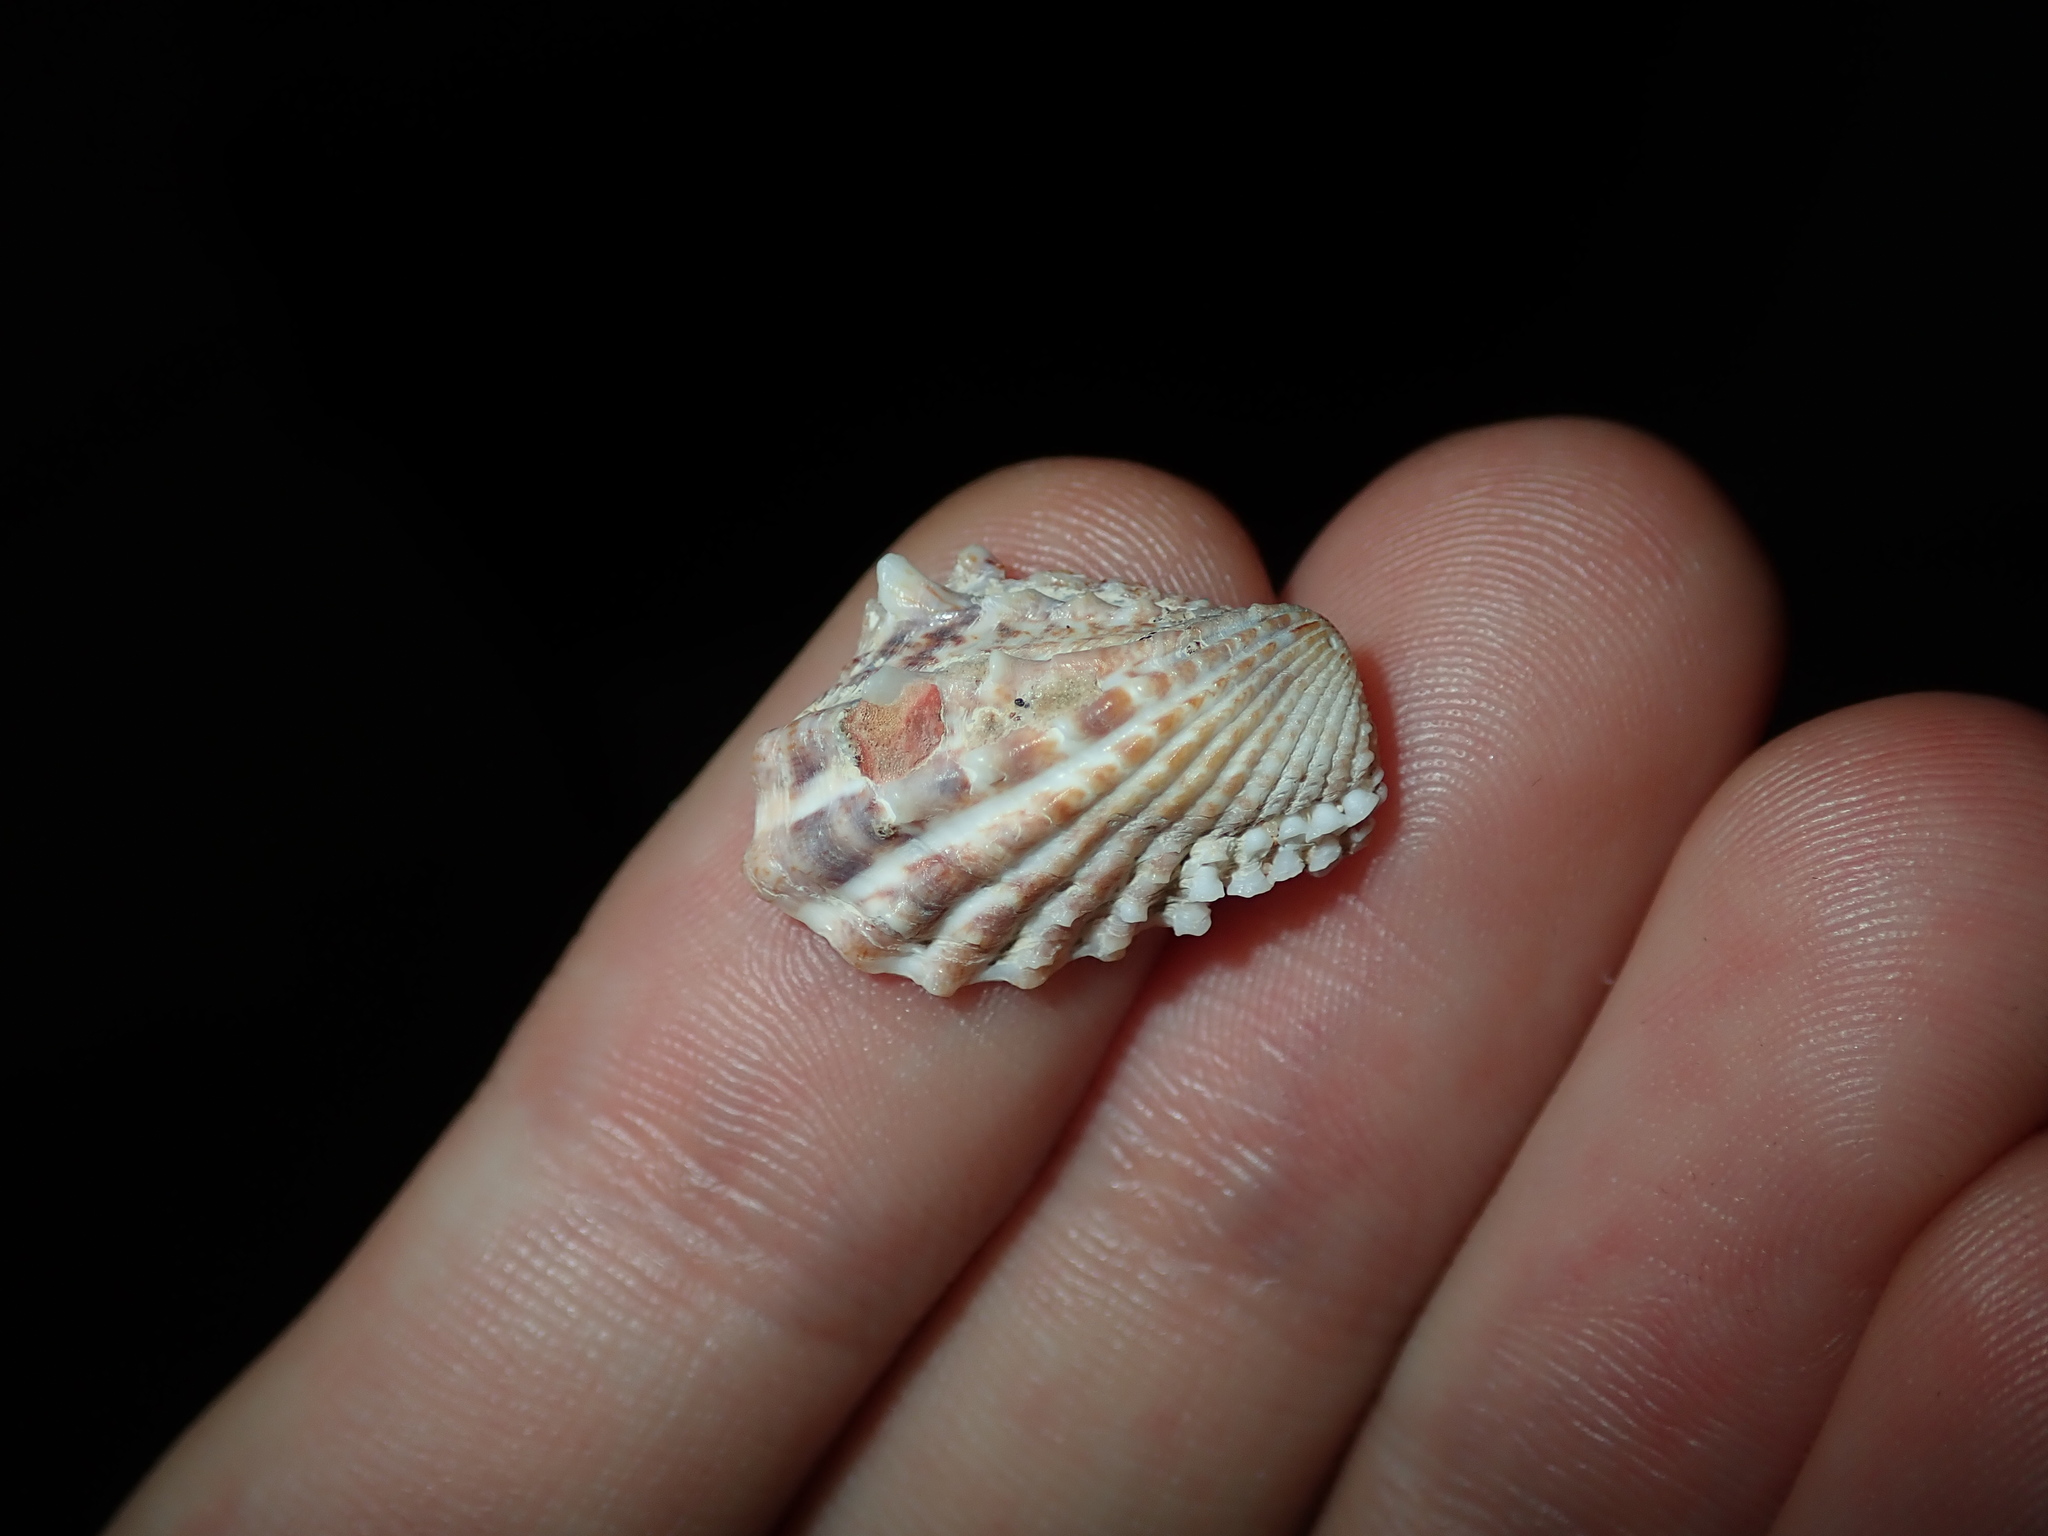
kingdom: Animalia
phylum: Mollusca
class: Bivalvia
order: Carditida
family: Carditidae
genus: Cardita
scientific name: Cardita aviculina
